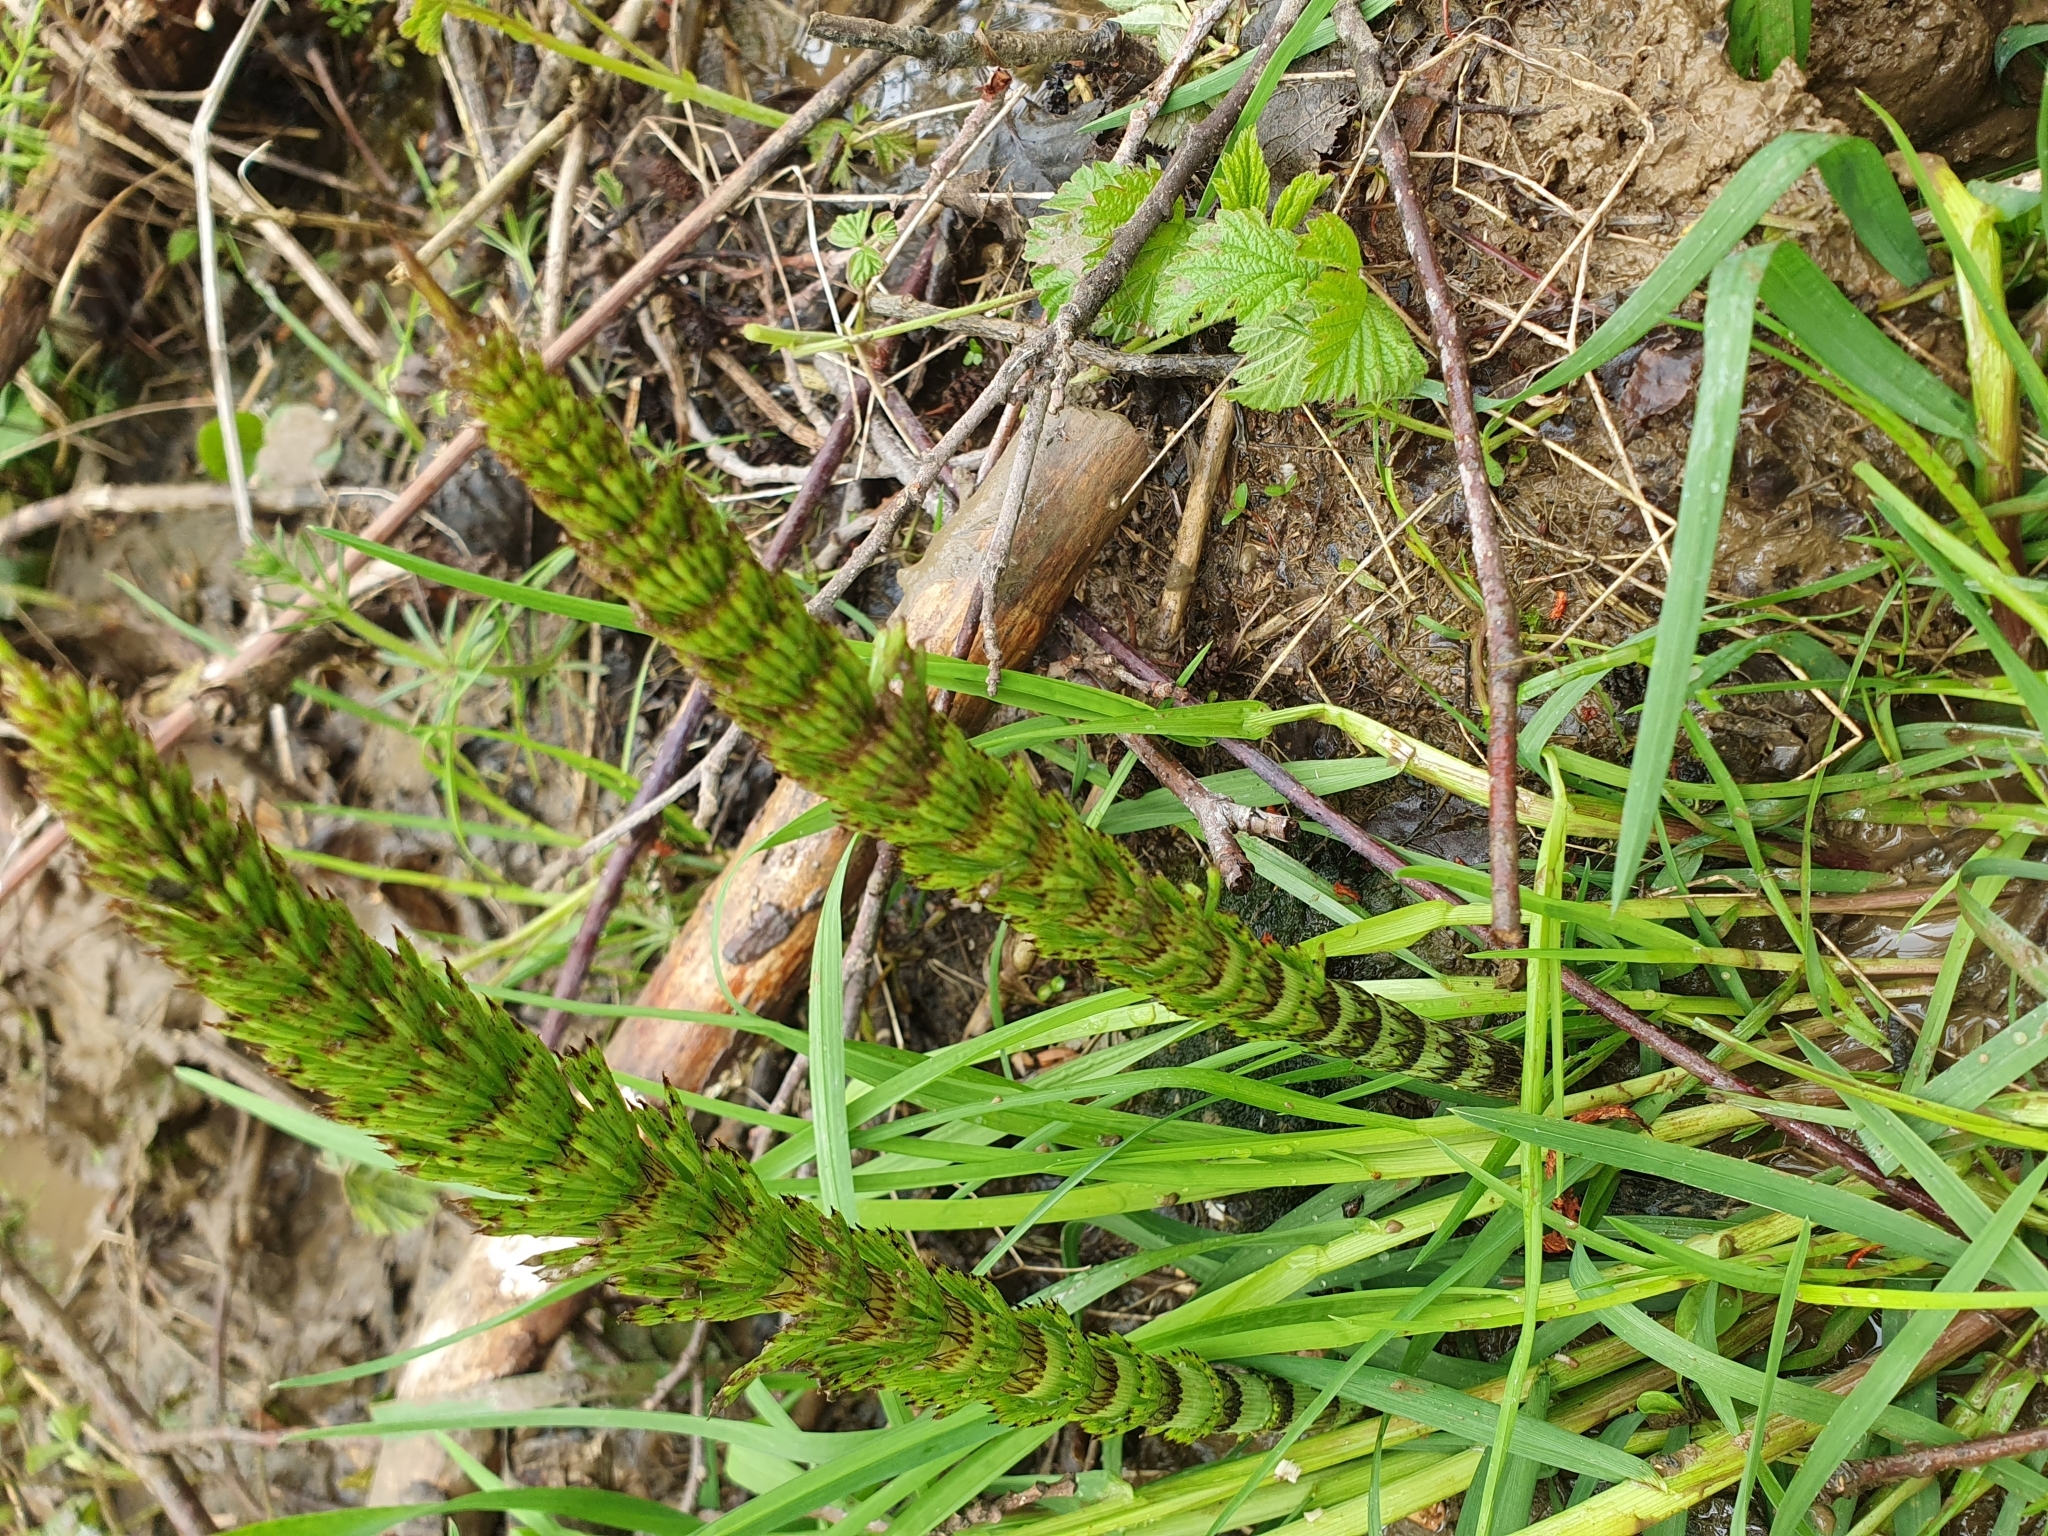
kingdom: Plantae
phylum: Tracheophyta
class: Polypodiopsida
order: Equisetales
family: Equisetaceae
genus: Equisetum
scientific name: Equisetum telmateia
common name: Great horsetail
